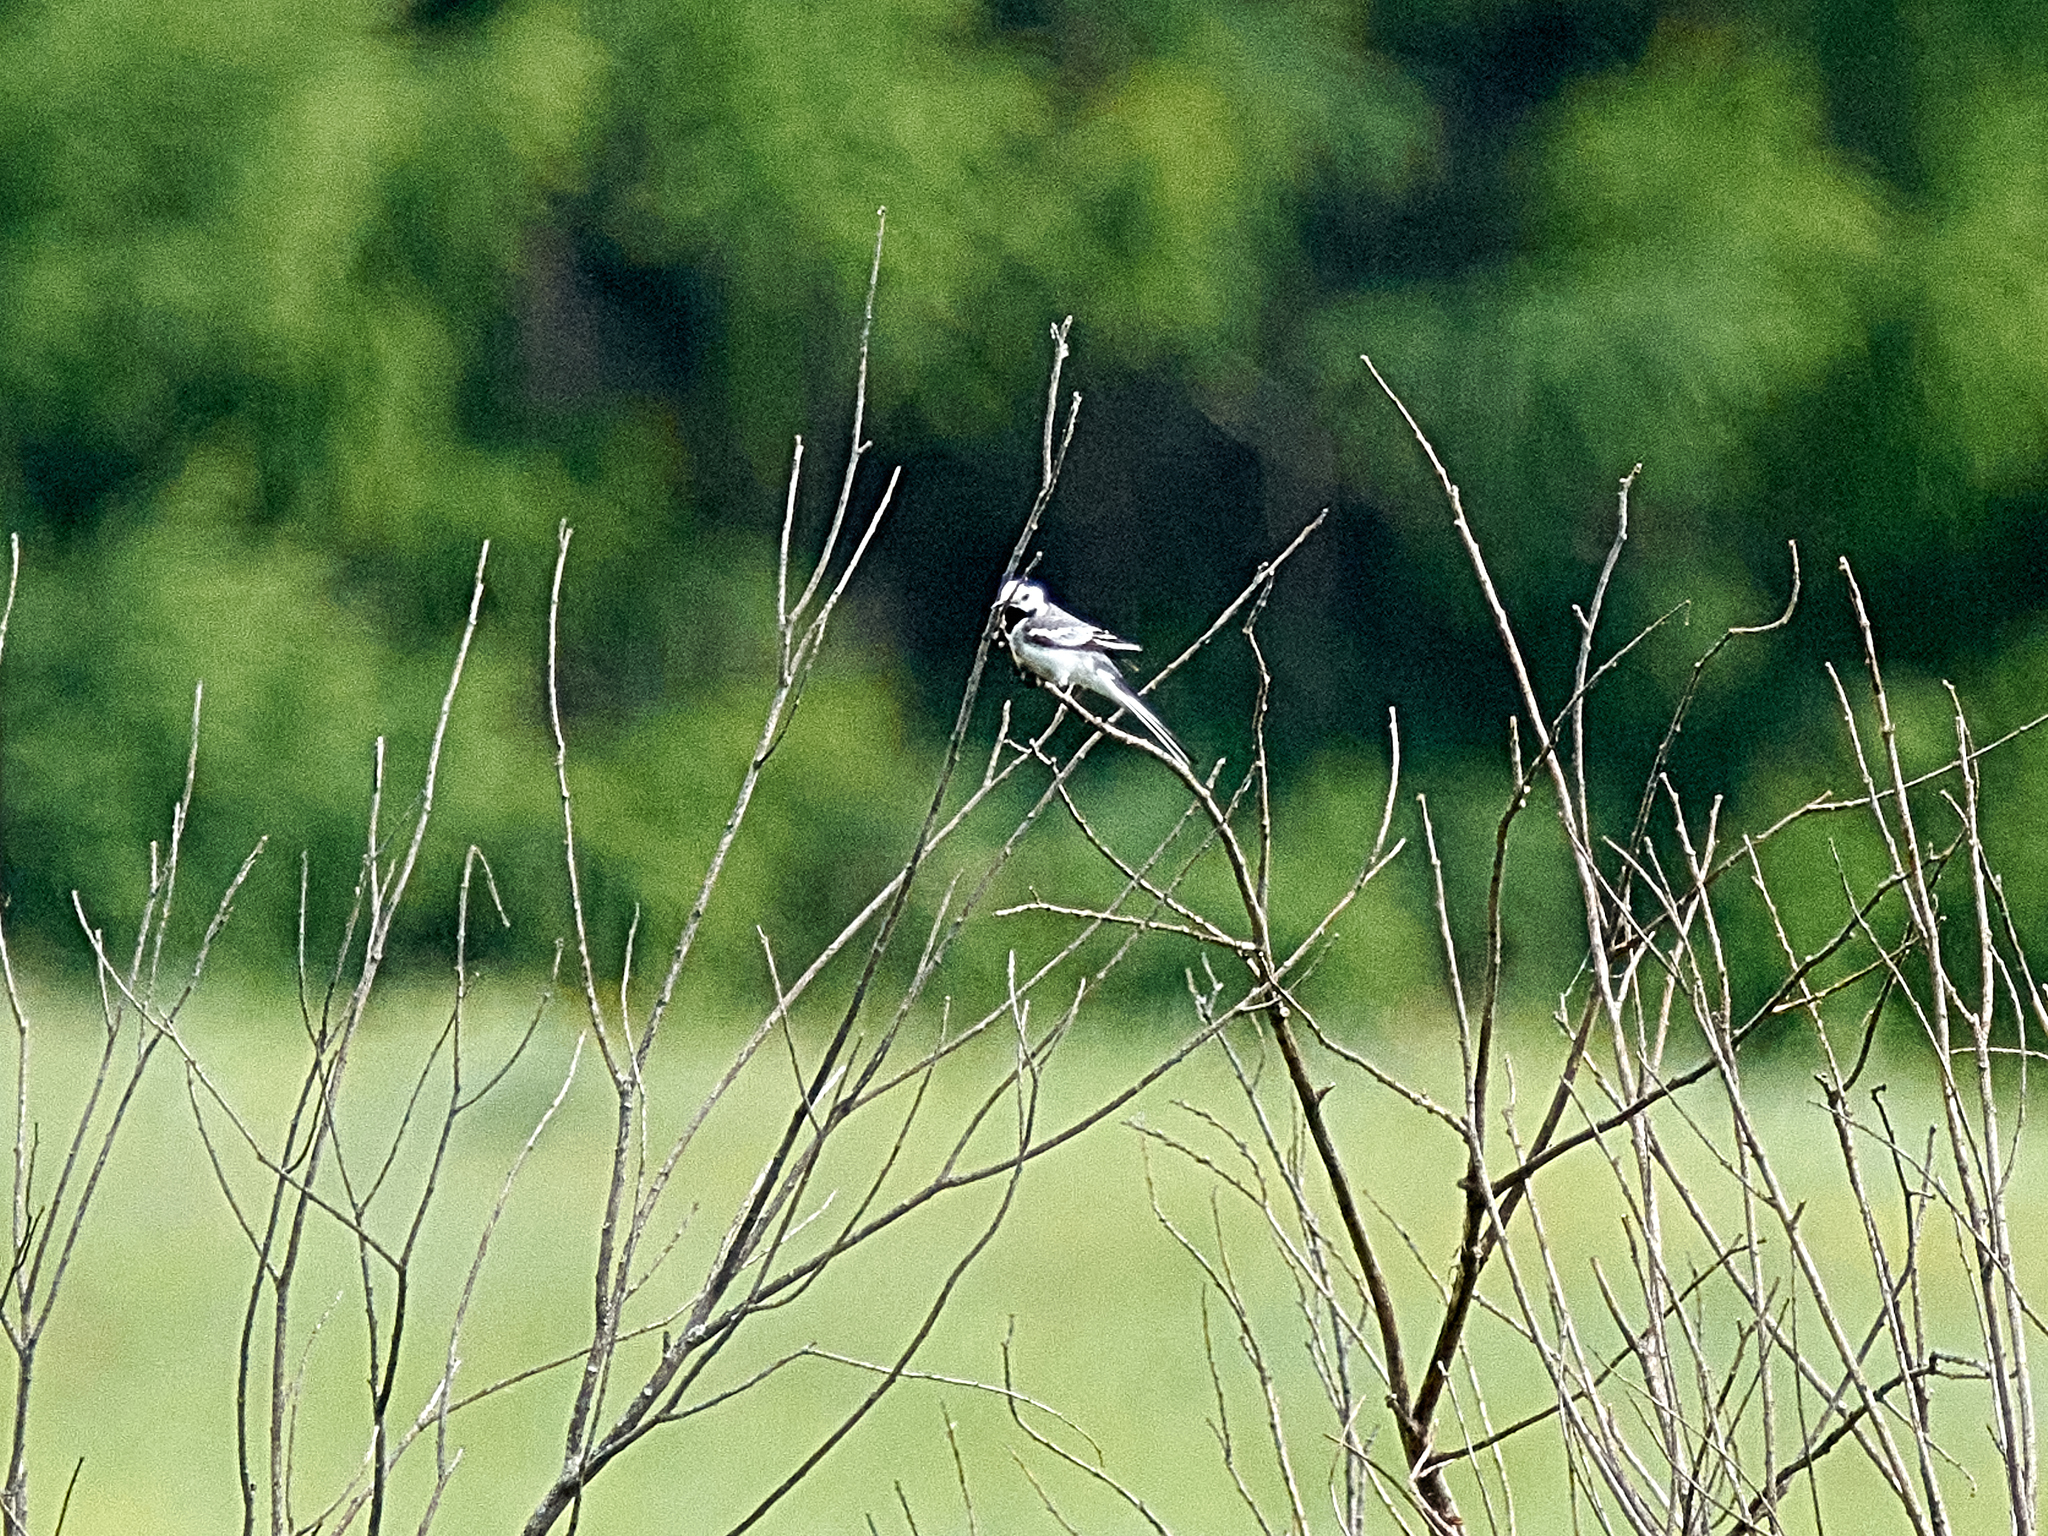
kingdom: Animalia
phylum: Chordata
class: Aves
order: Passeriformes
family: Motacillidae
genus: Motacilla
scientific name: Motacilla alba
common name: White wagtail
